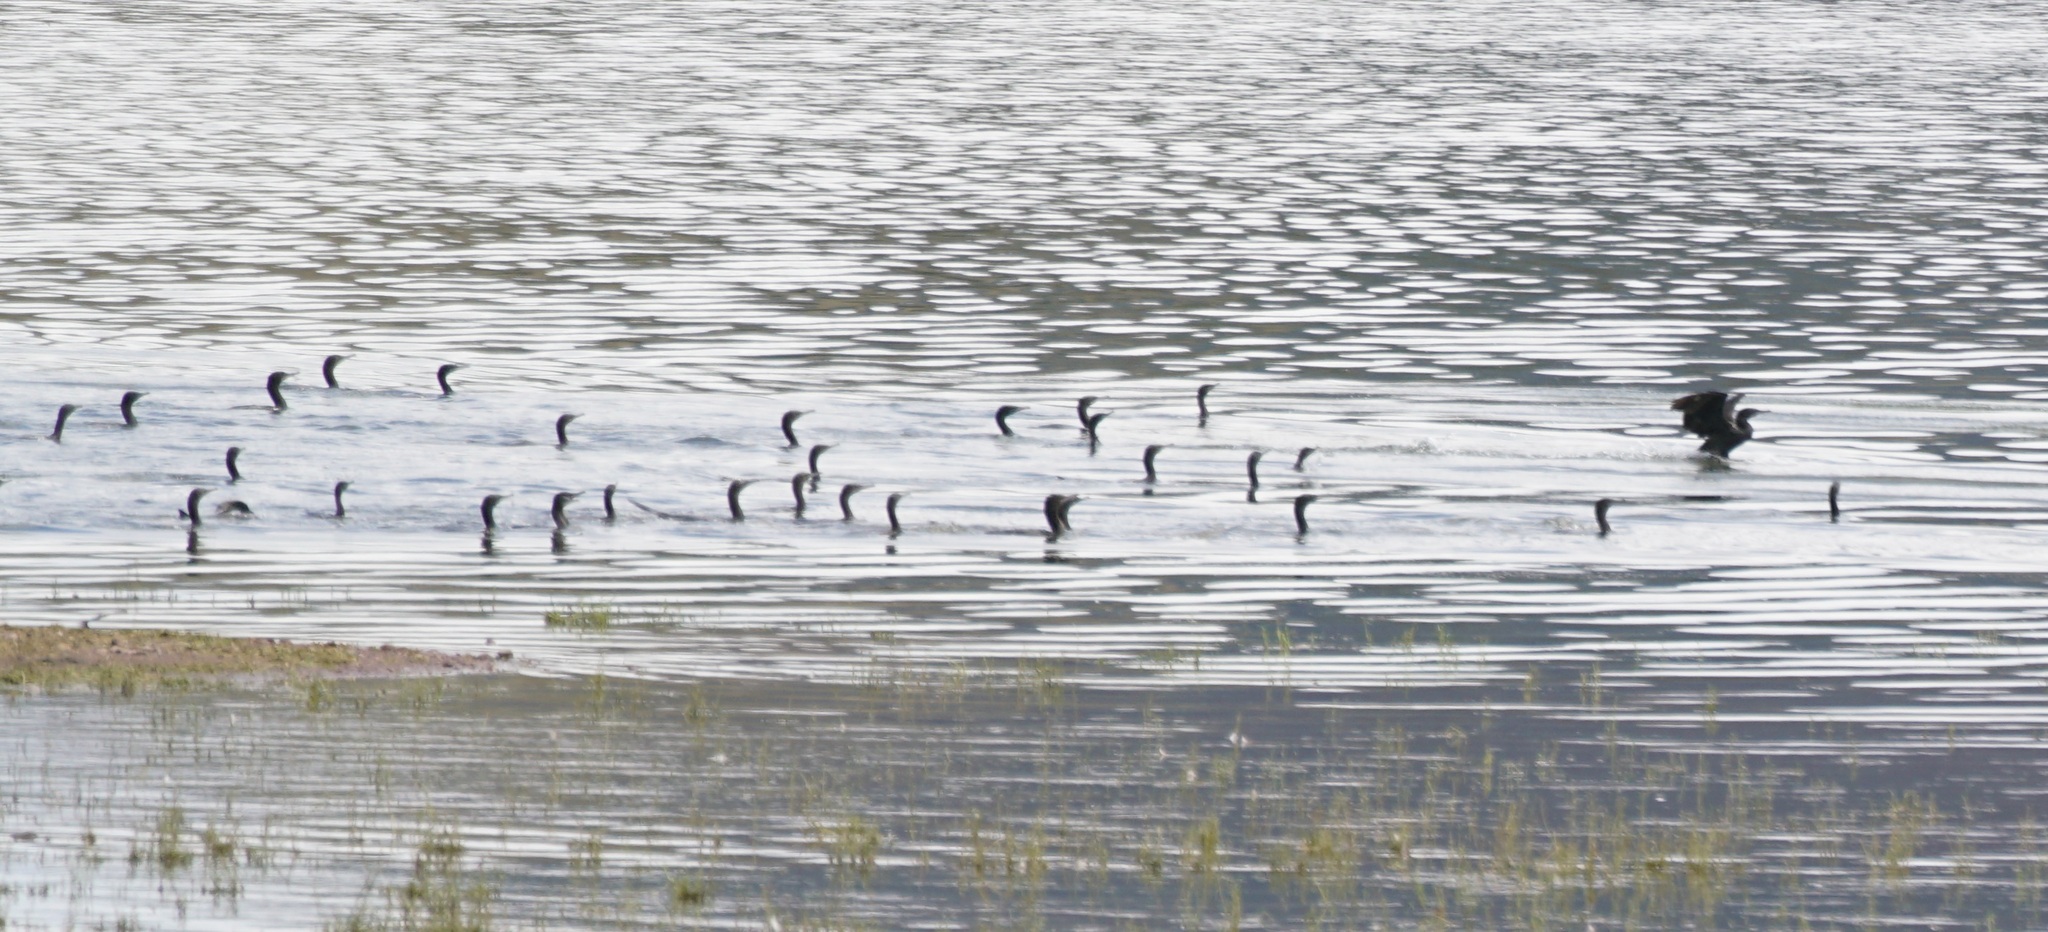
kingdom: Animalia
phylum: Chordata
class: Aves
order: Suliformes
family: Phalacrocoracidae
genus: Phalacrocorax
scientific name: Phalacrocorax sulcirostris
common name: Little black cormorant
